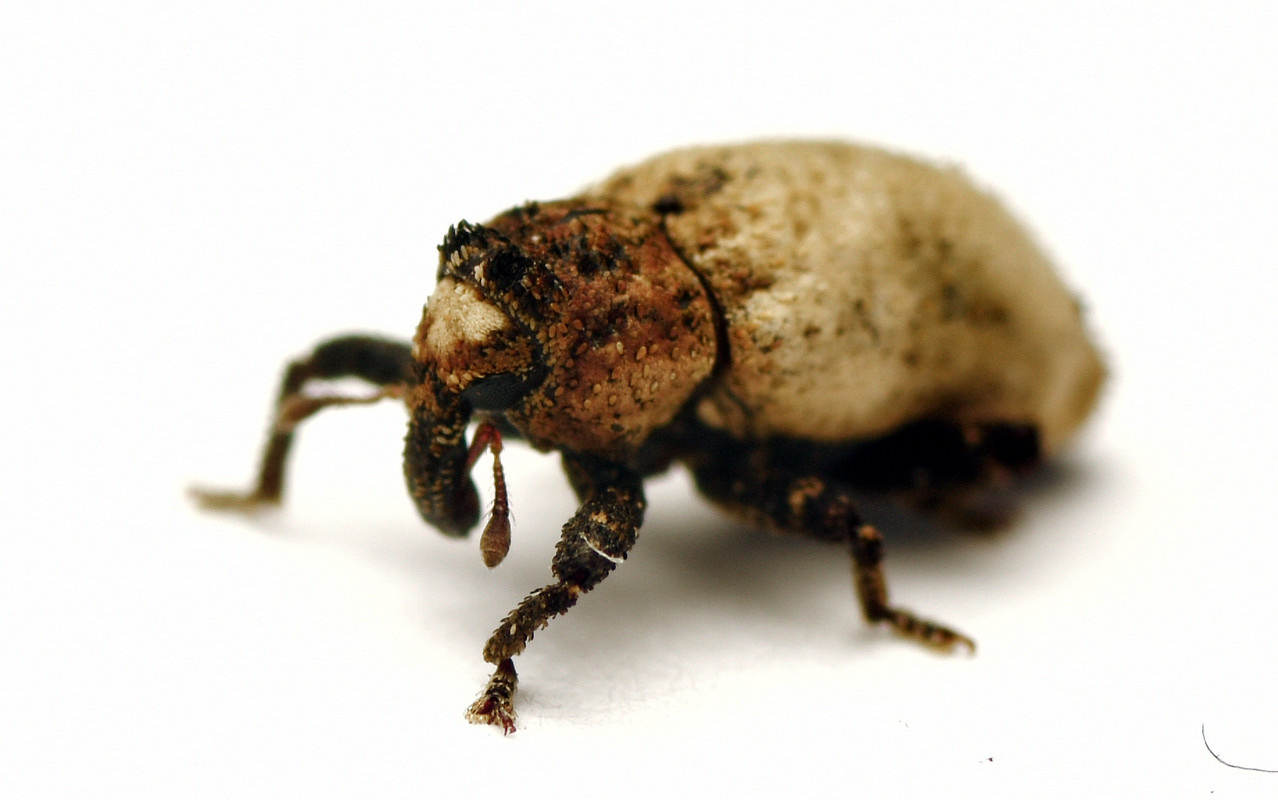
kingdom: Animalia
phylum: Arthropoda
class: Insecta
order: Coleoptera
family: Curculionidae
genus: Orthoporopterus
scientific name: Orthoporopterus elongatus
